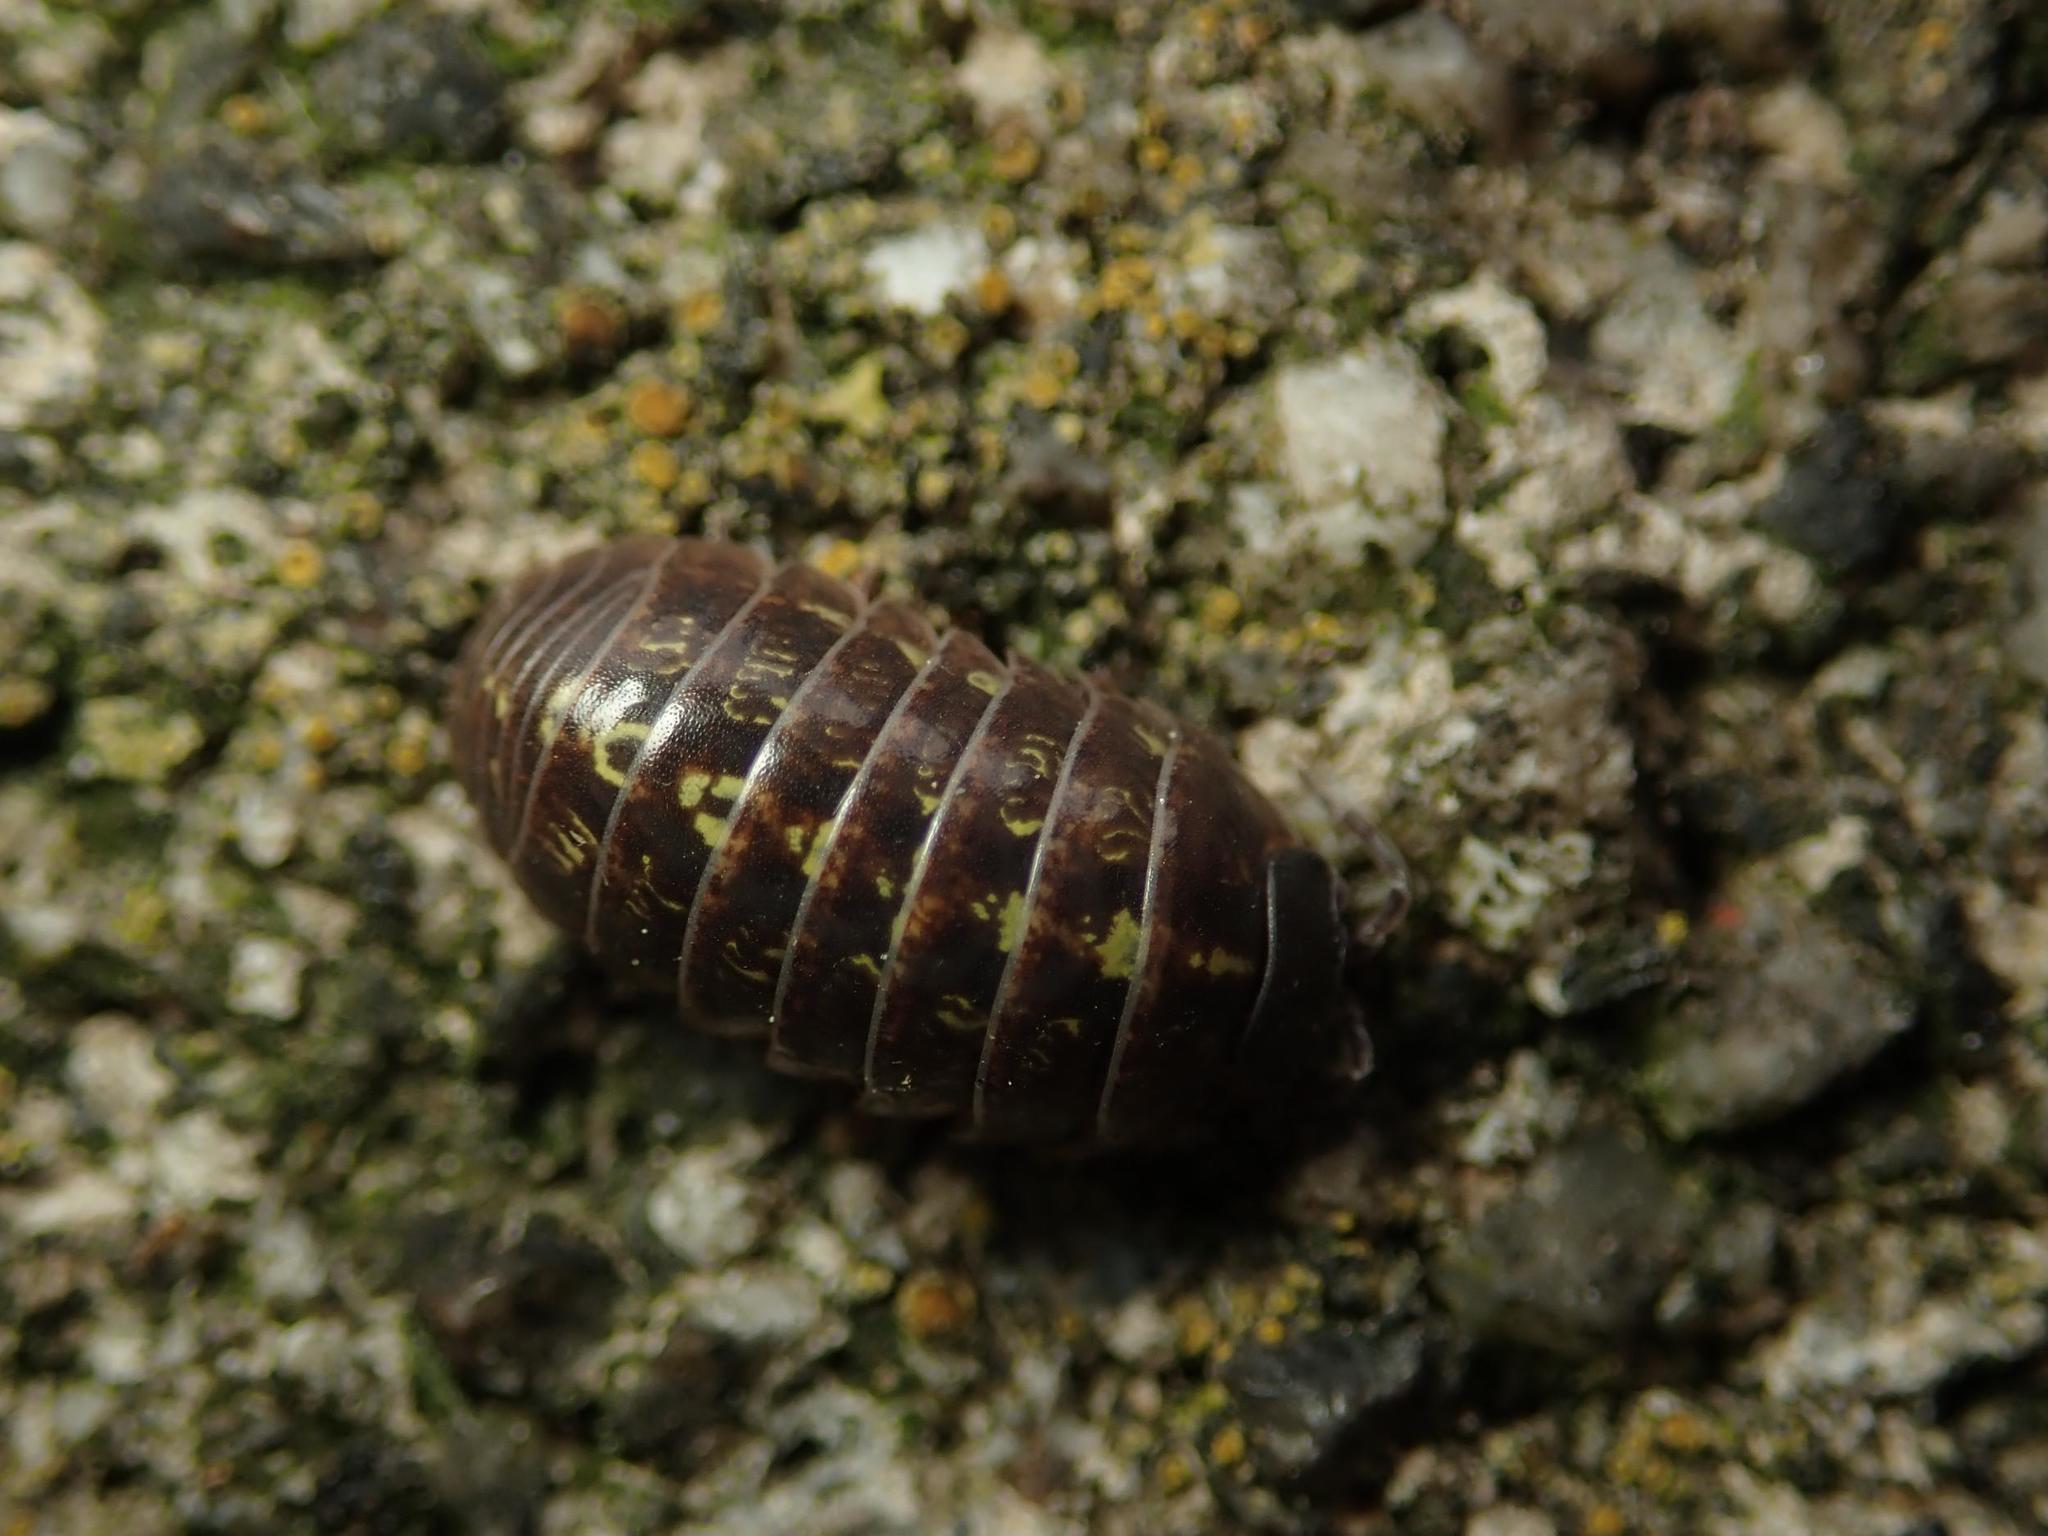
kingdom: Animalia
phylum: Arthropoda
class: Malacostraca
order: Isopoda
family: Armadillidiidae
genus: Armadillidium
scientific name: Armadillidium vulgare
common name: Common pill woodlouse
